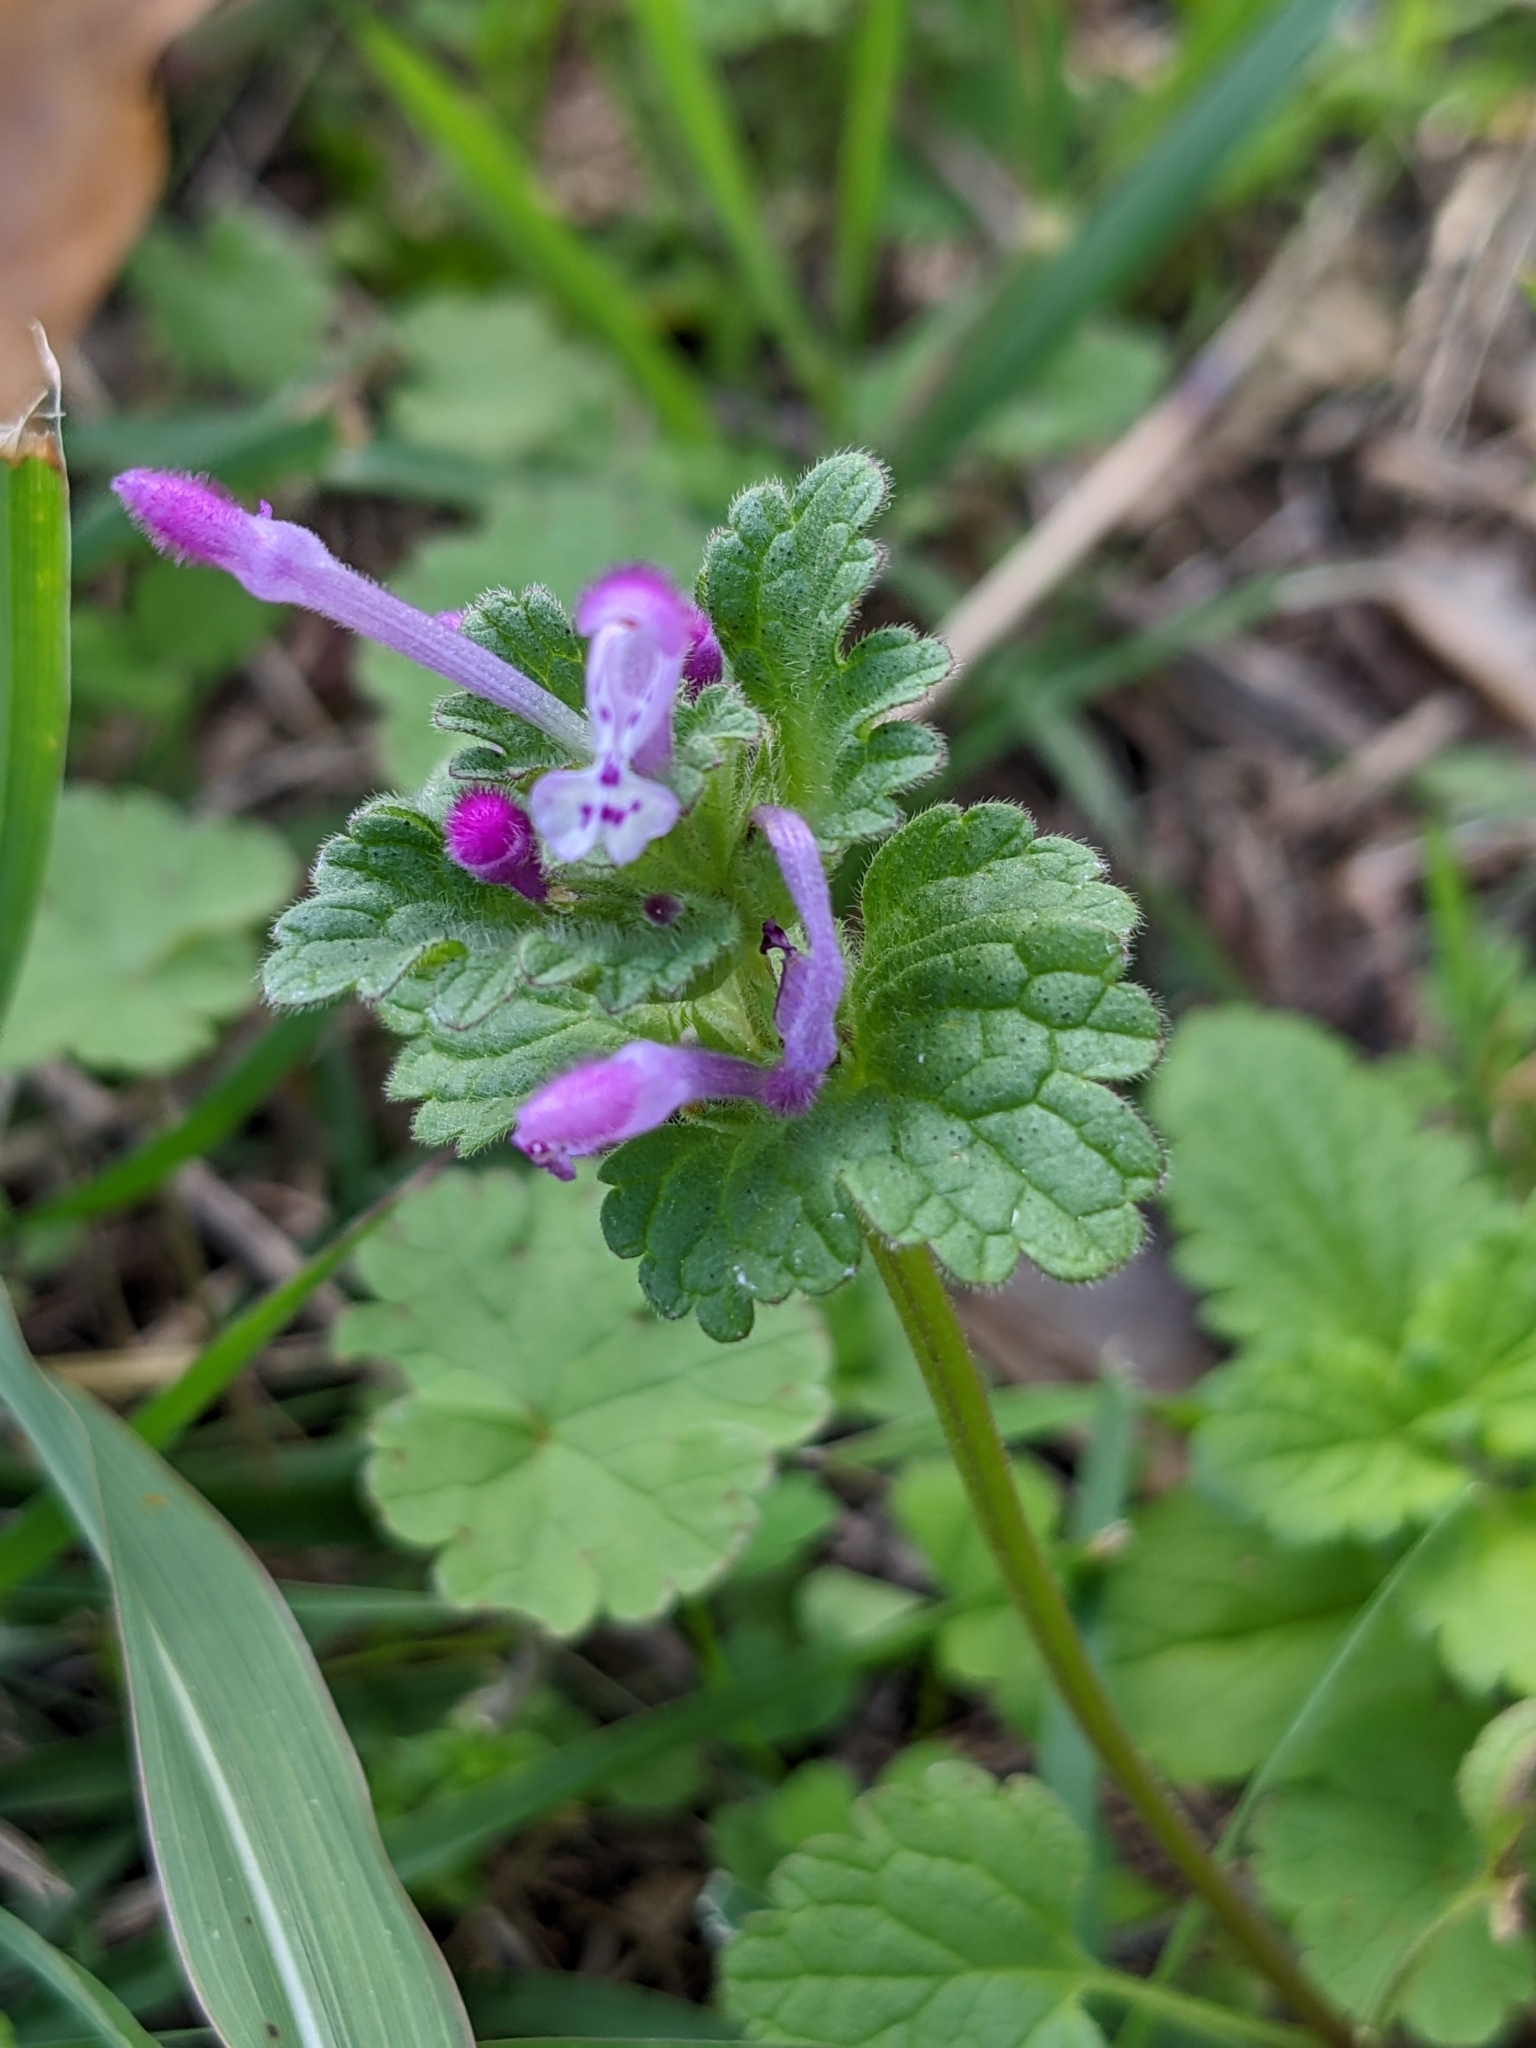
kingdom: Plantae
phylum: Tracheophyta
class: Magnoliopsida
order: Lamiales
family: Lamiaceae
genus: Lamium
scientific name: Lamium amplexicaule
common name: Henbit dead-nettle
